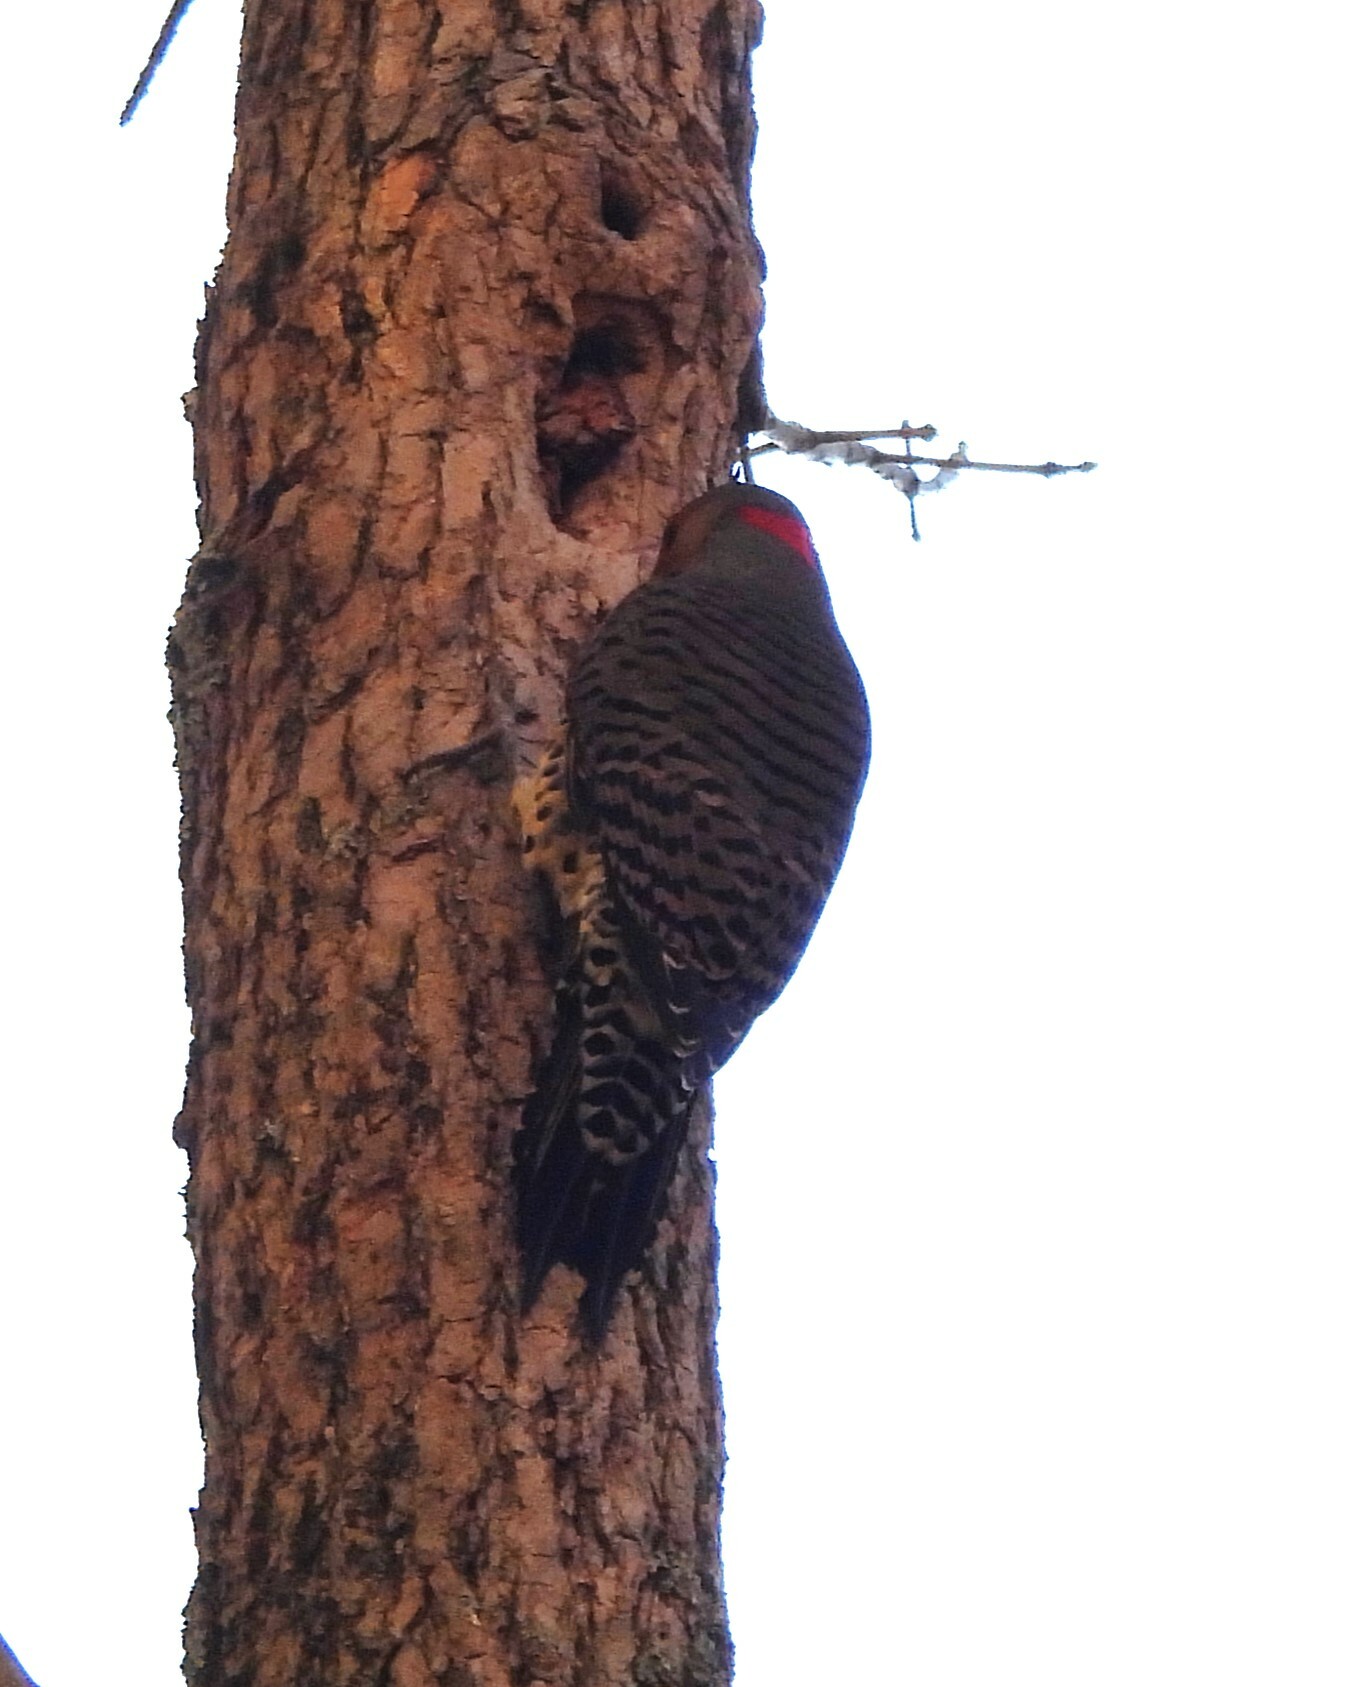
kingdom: Animalia
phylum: Chordata
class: Aves
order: Piciformes
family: Picidae
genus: Colaptes
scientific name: Colaptes auratus
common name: Northern flicker
